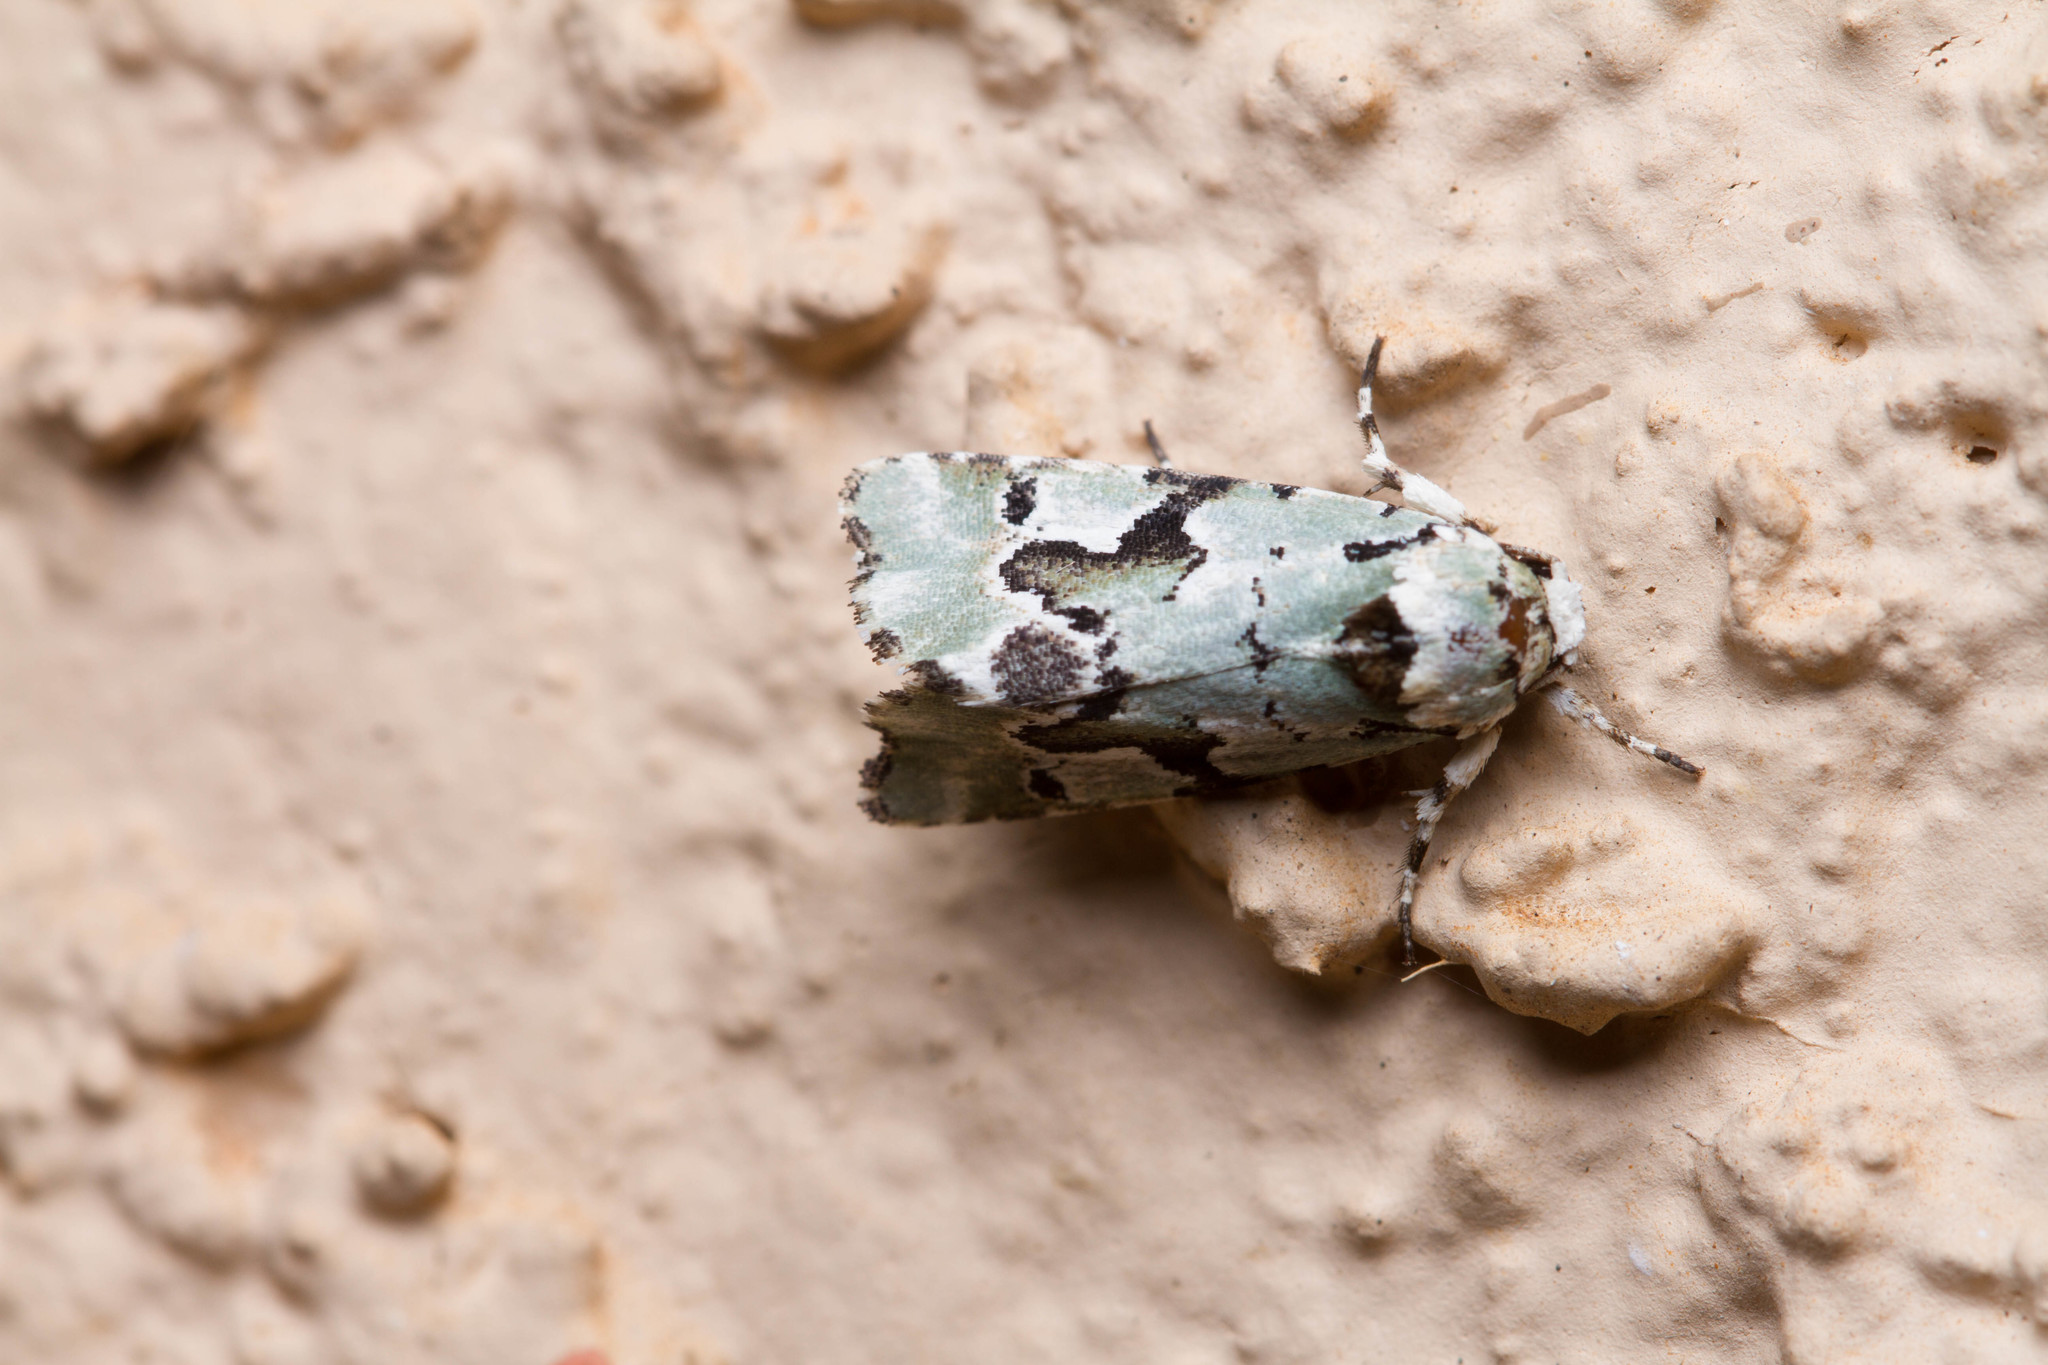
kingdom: Animalia
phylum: Arthropoda
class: Insecta
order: Lepidoptera
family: Noctuidae
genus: Emarginea
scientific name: Emarginea percara
